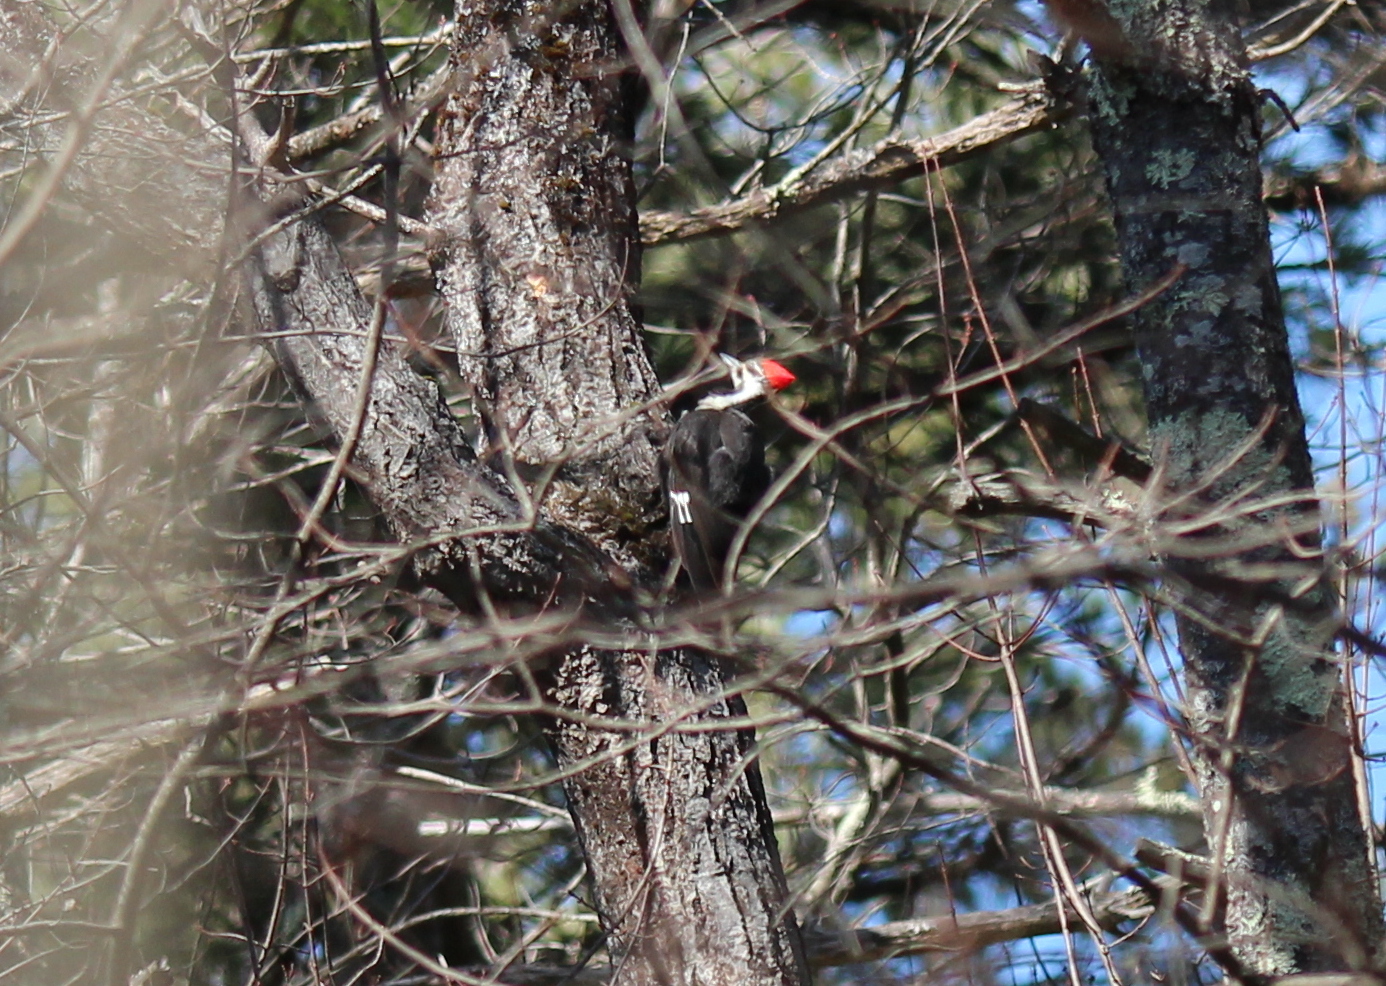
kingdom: Animalia
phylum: Chordata
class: Aves
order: Piciformes
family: Picidae
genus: Dryocopus
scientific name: Dryocopus pileatus
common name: Pileated woodpecker
